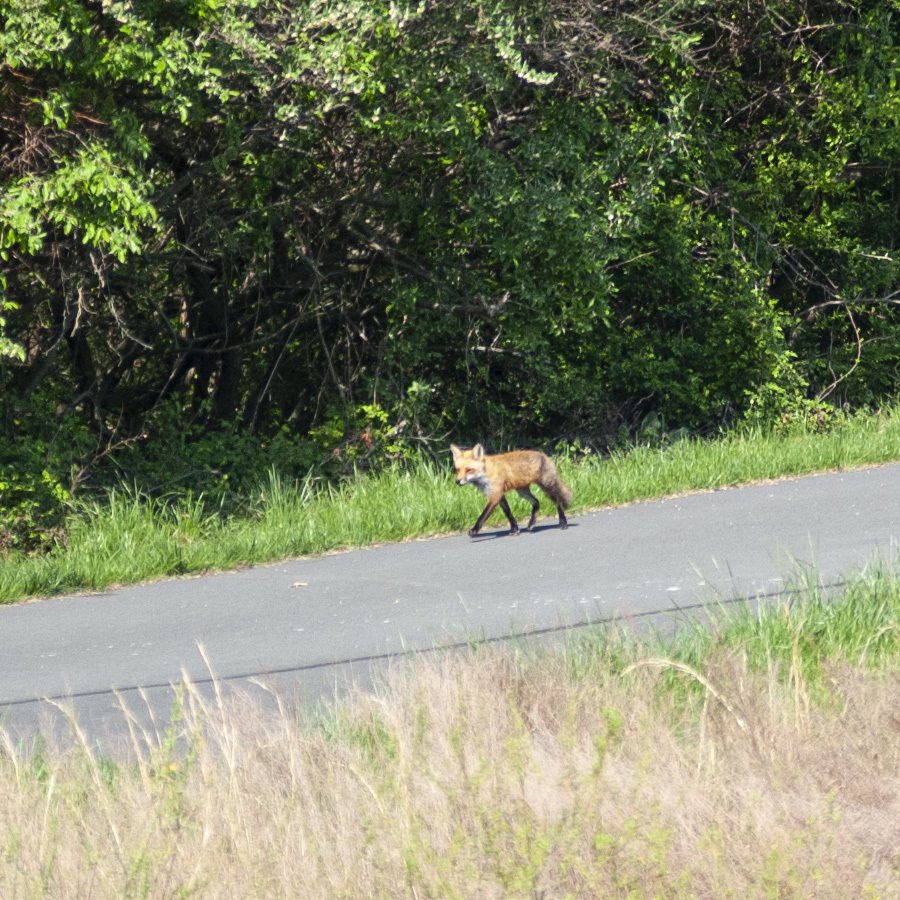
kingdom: Animalia
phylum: Chordata
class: Mammalia
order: Carnivora
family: Canidae
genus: Vulpes
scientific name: Vulpes vulpes
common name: Red fox
